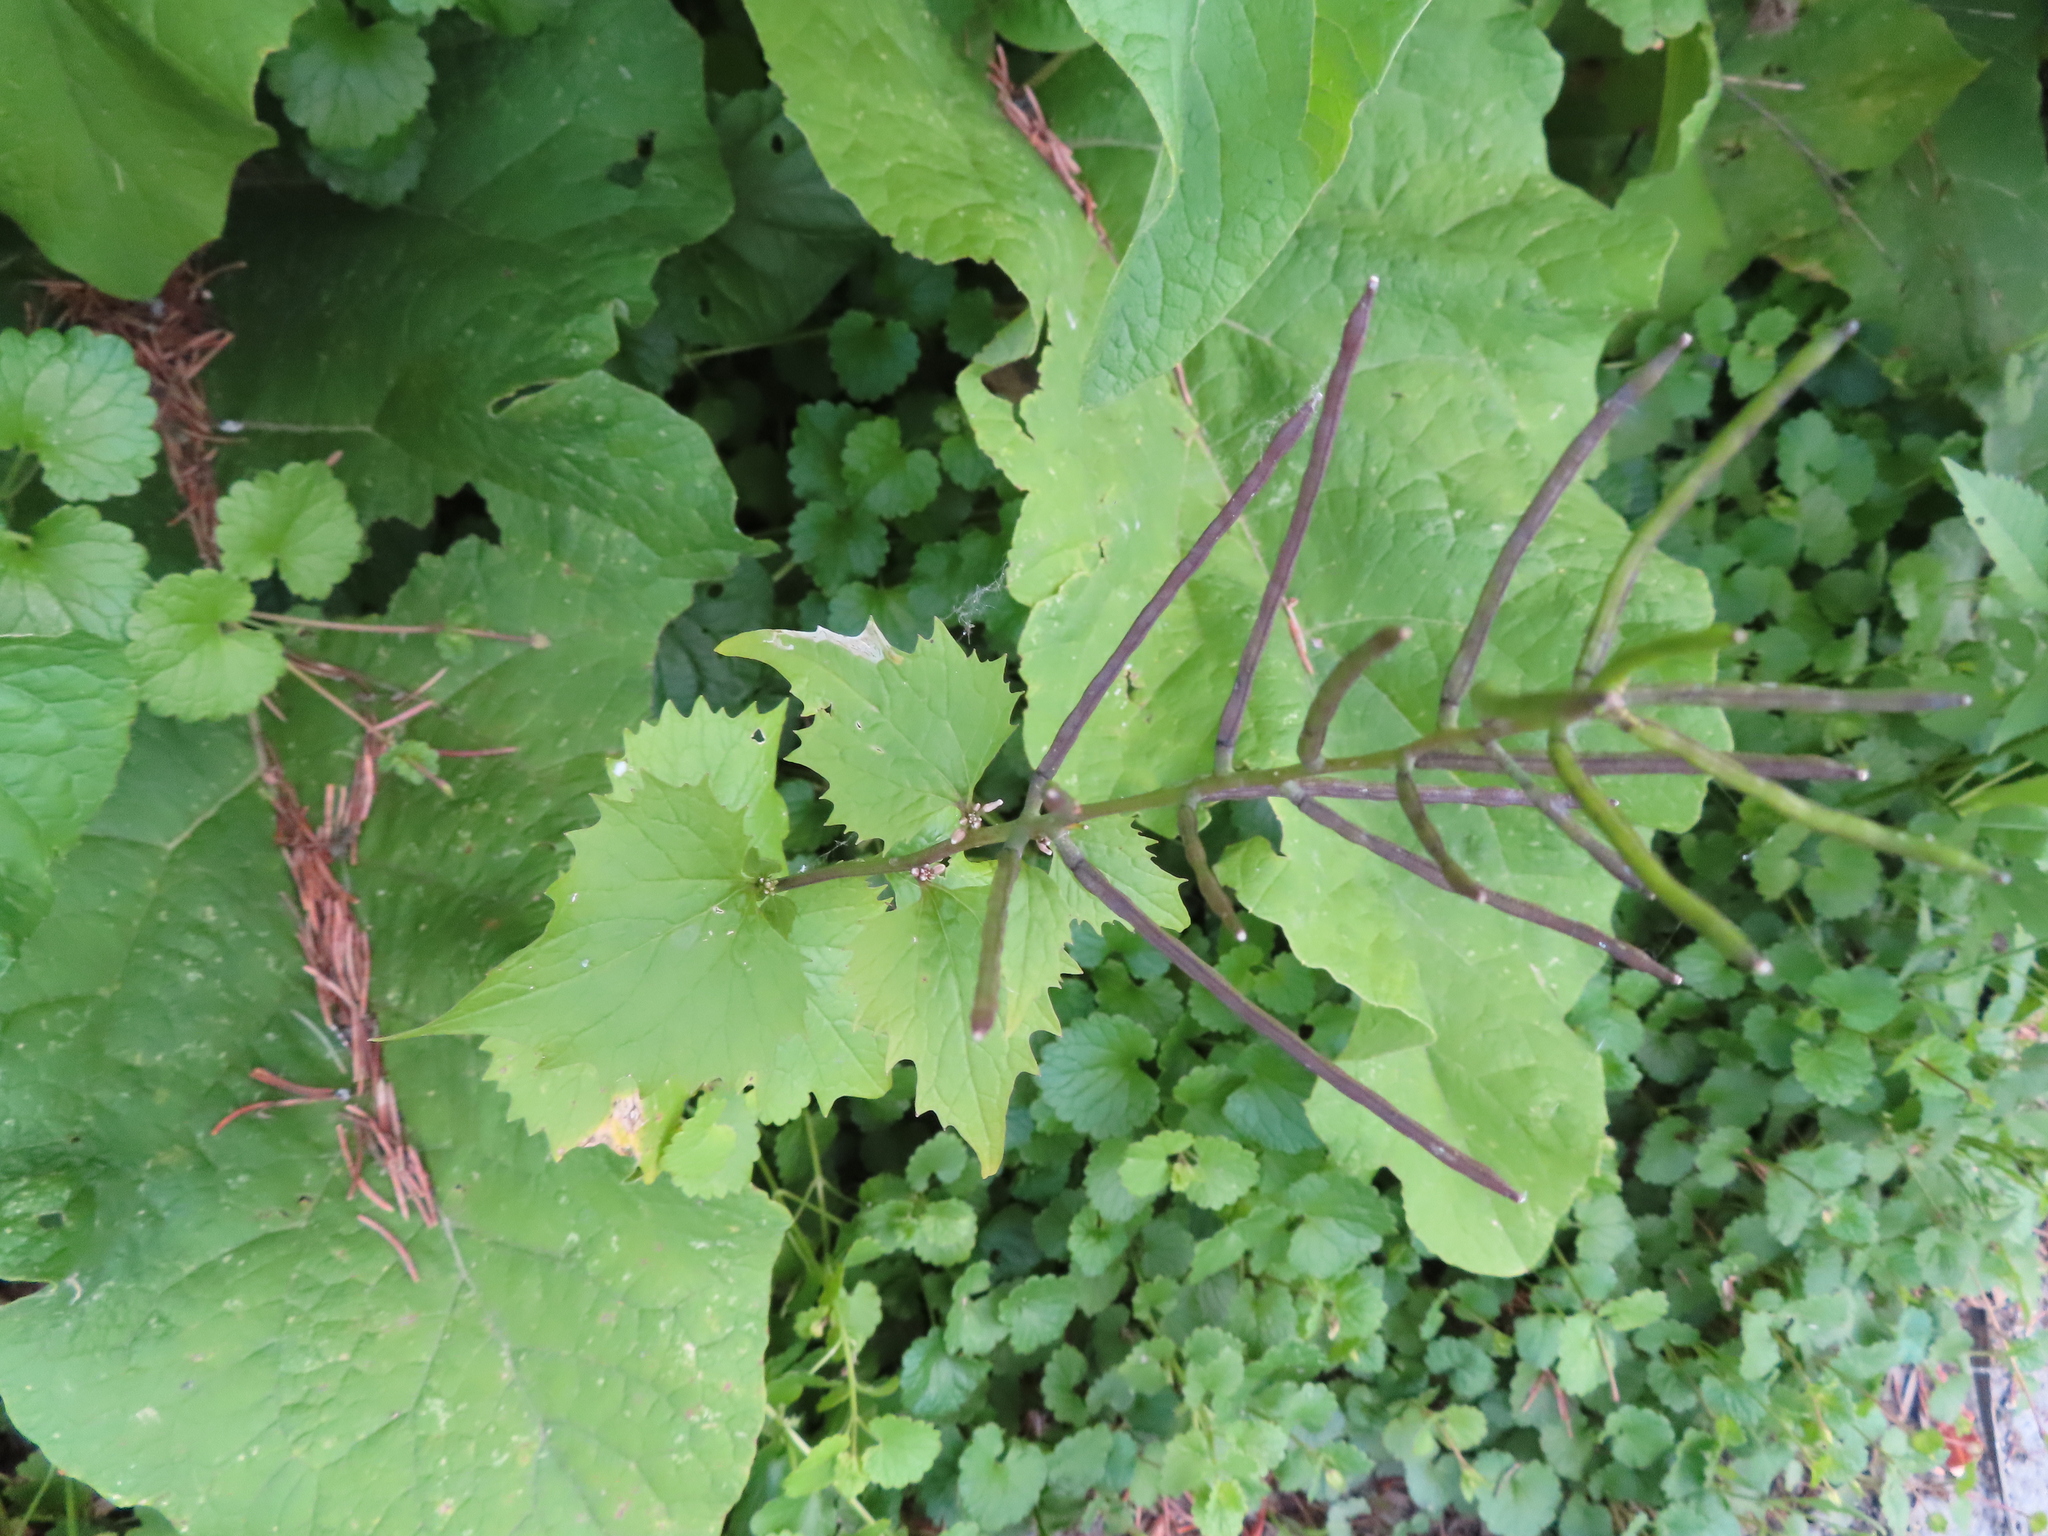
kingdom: Plantae
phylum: Tracheophyta
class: Magnoliopsida
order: Brassicales
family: Brassicaceae
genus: Alliaria
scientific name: Alliaria petiolata
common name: Garlic mustard
